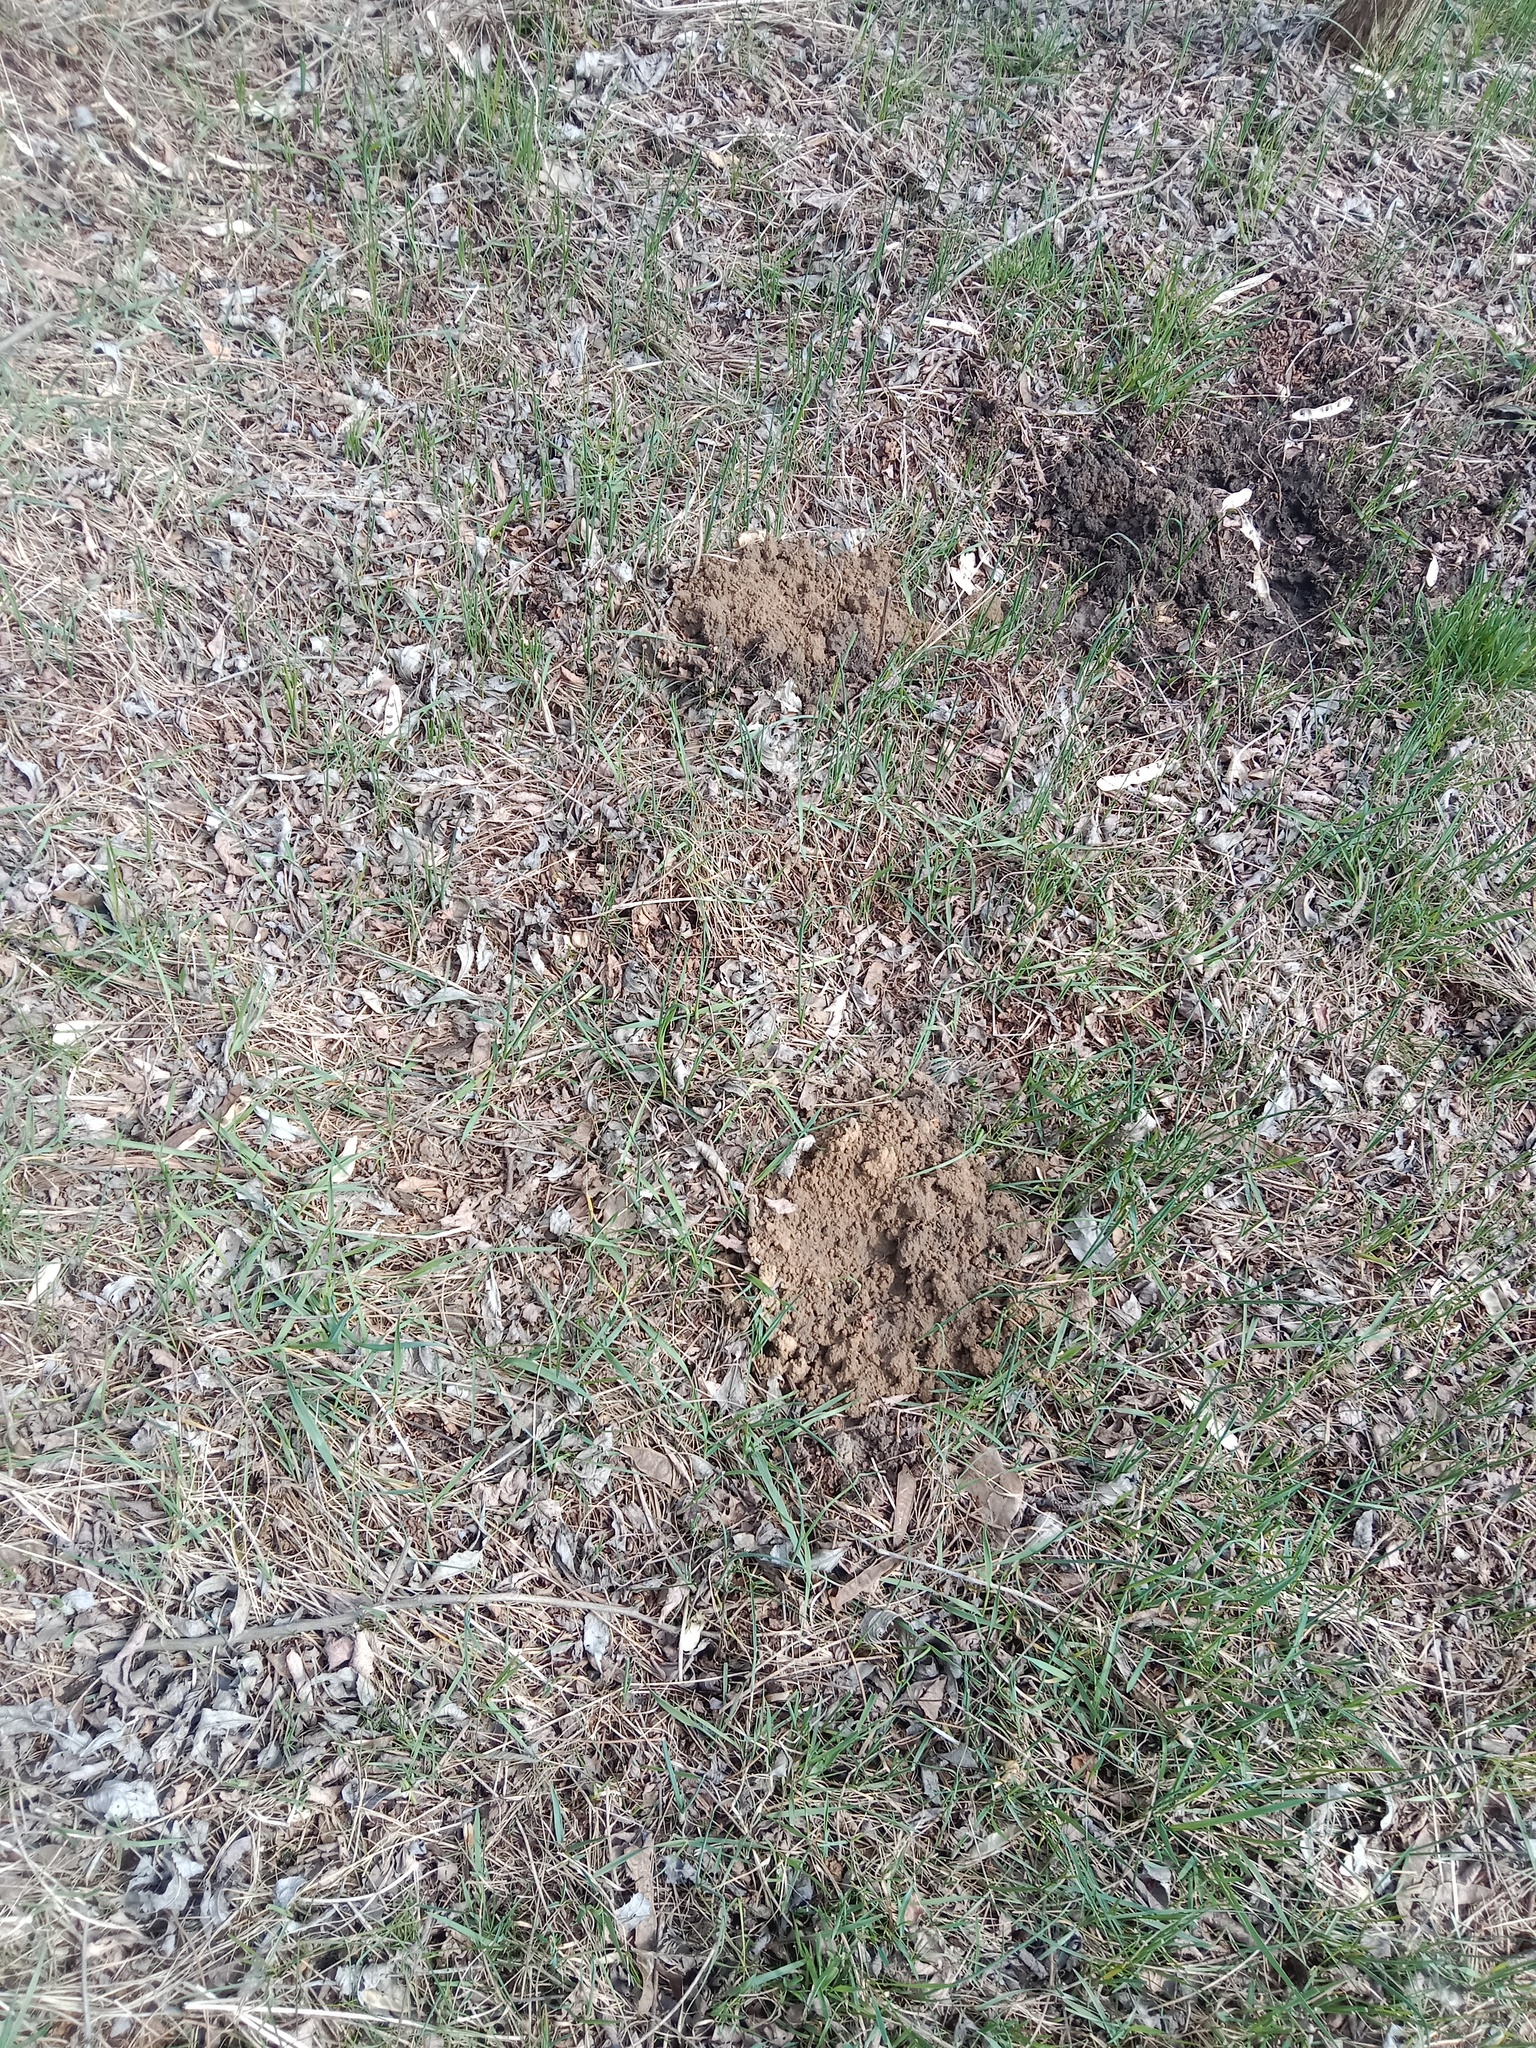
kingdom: Animalia
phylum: Chordata
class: Mammalia
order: Soricomorpha
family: Talpidae
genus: Talpa
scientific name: Talpa europaea
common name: European mole
